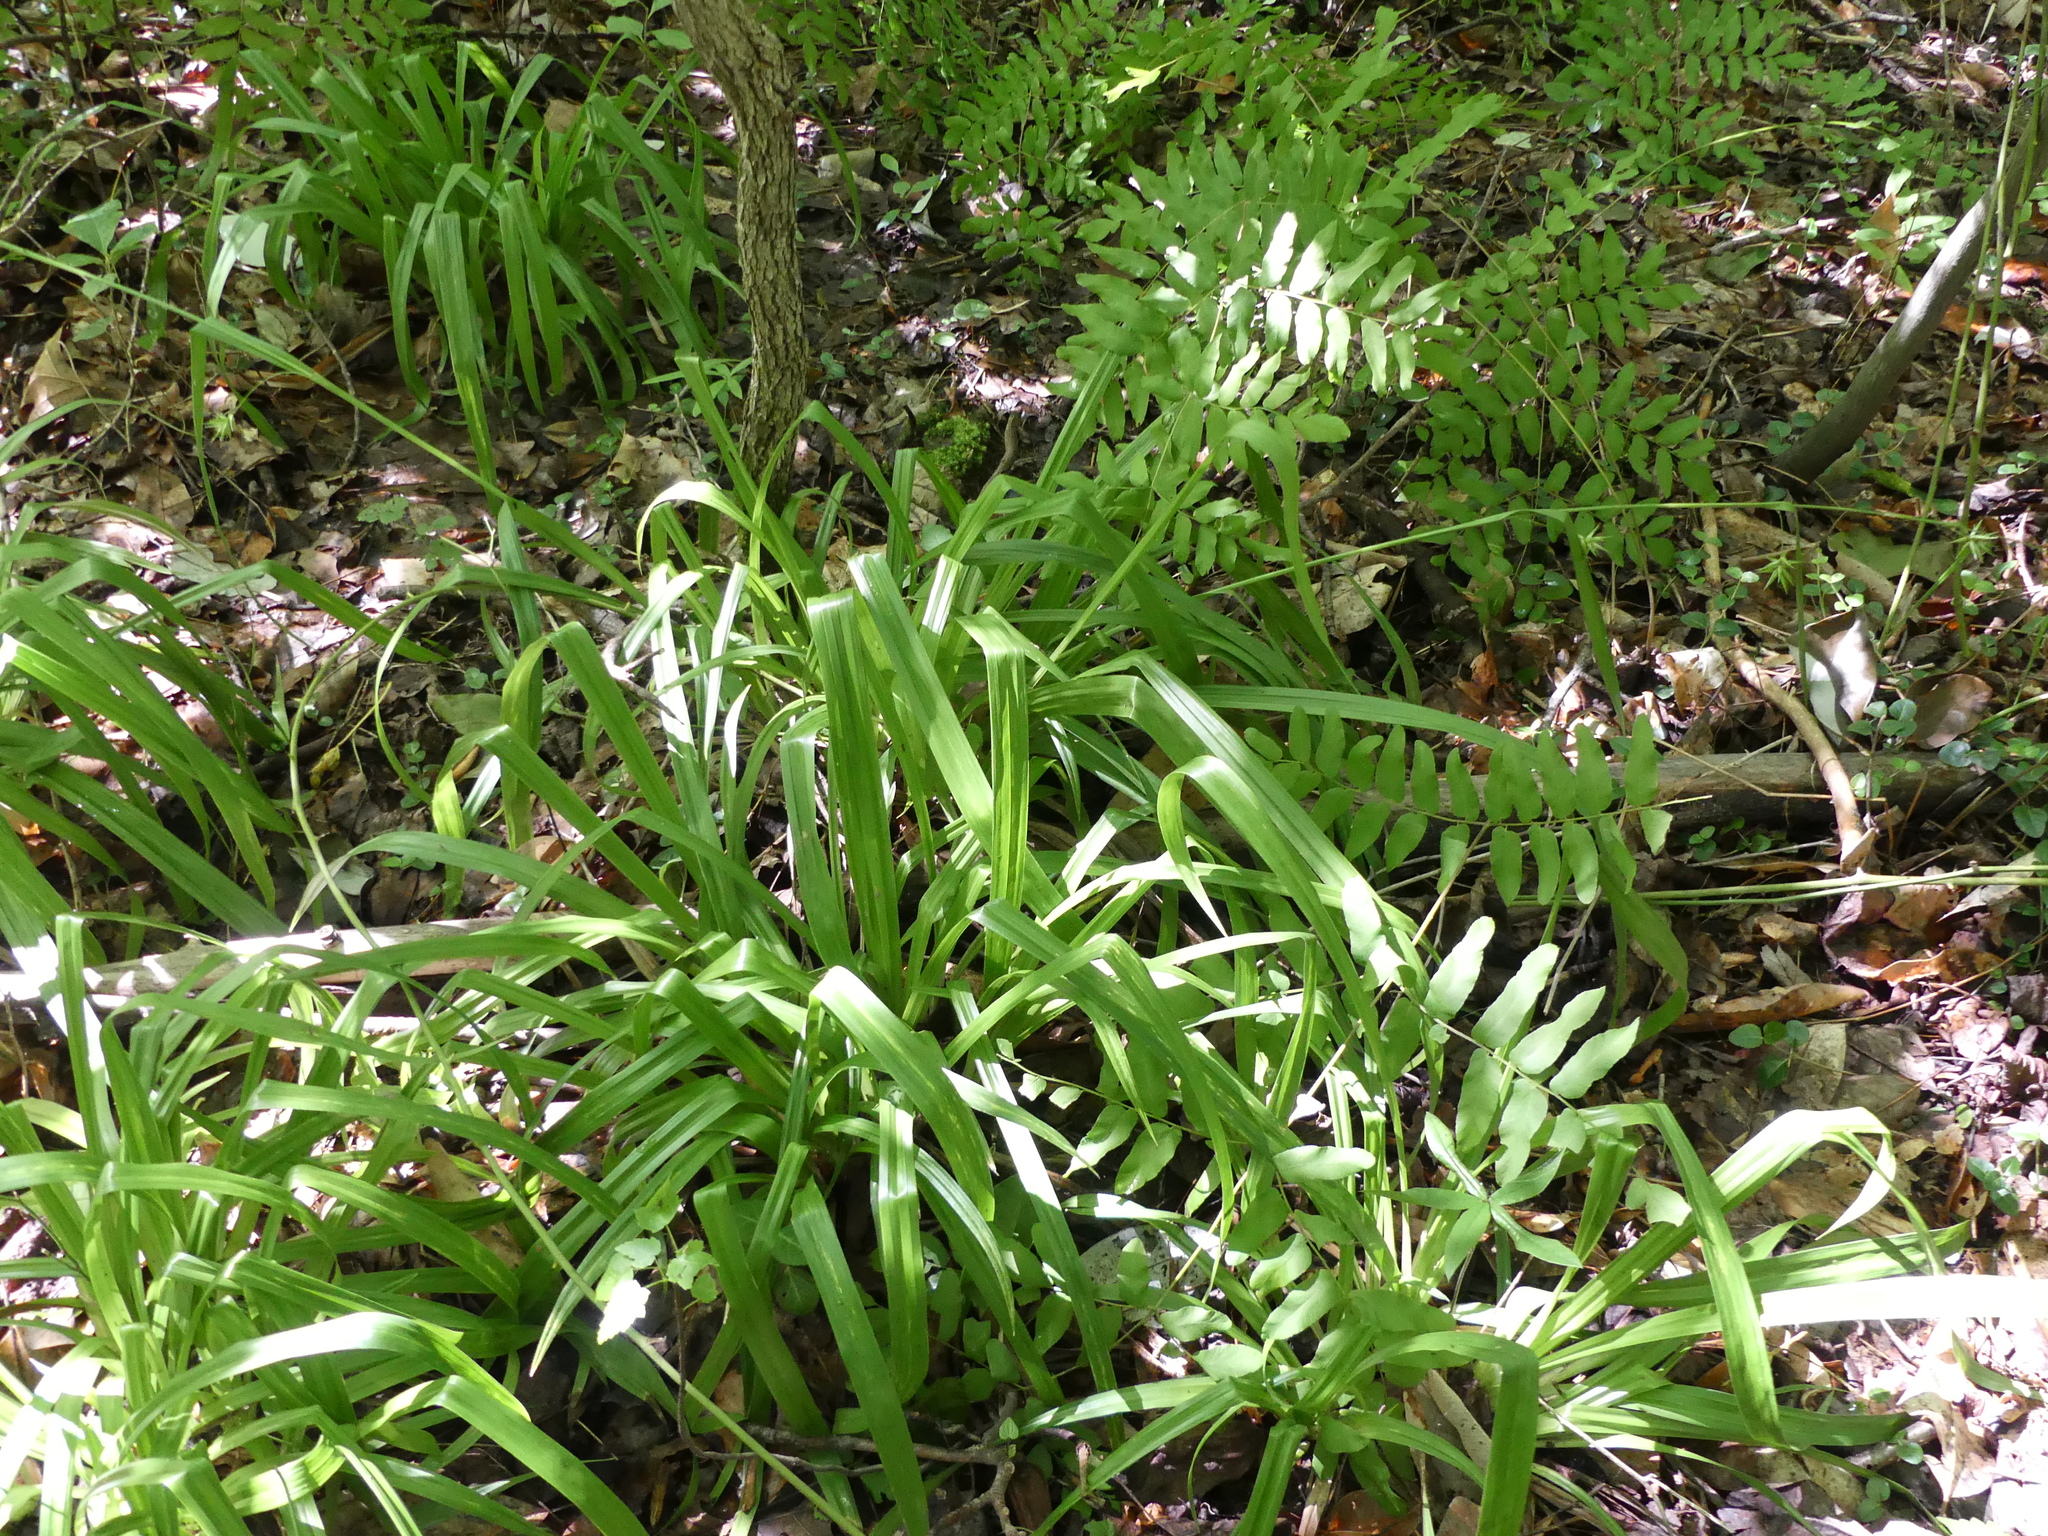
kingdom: Plantae
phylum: Tracheophyta
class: Liliopsida
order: Poales
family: Cyperaceae
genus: Carex
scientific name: Carex folliculata
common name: Northern long sedge
